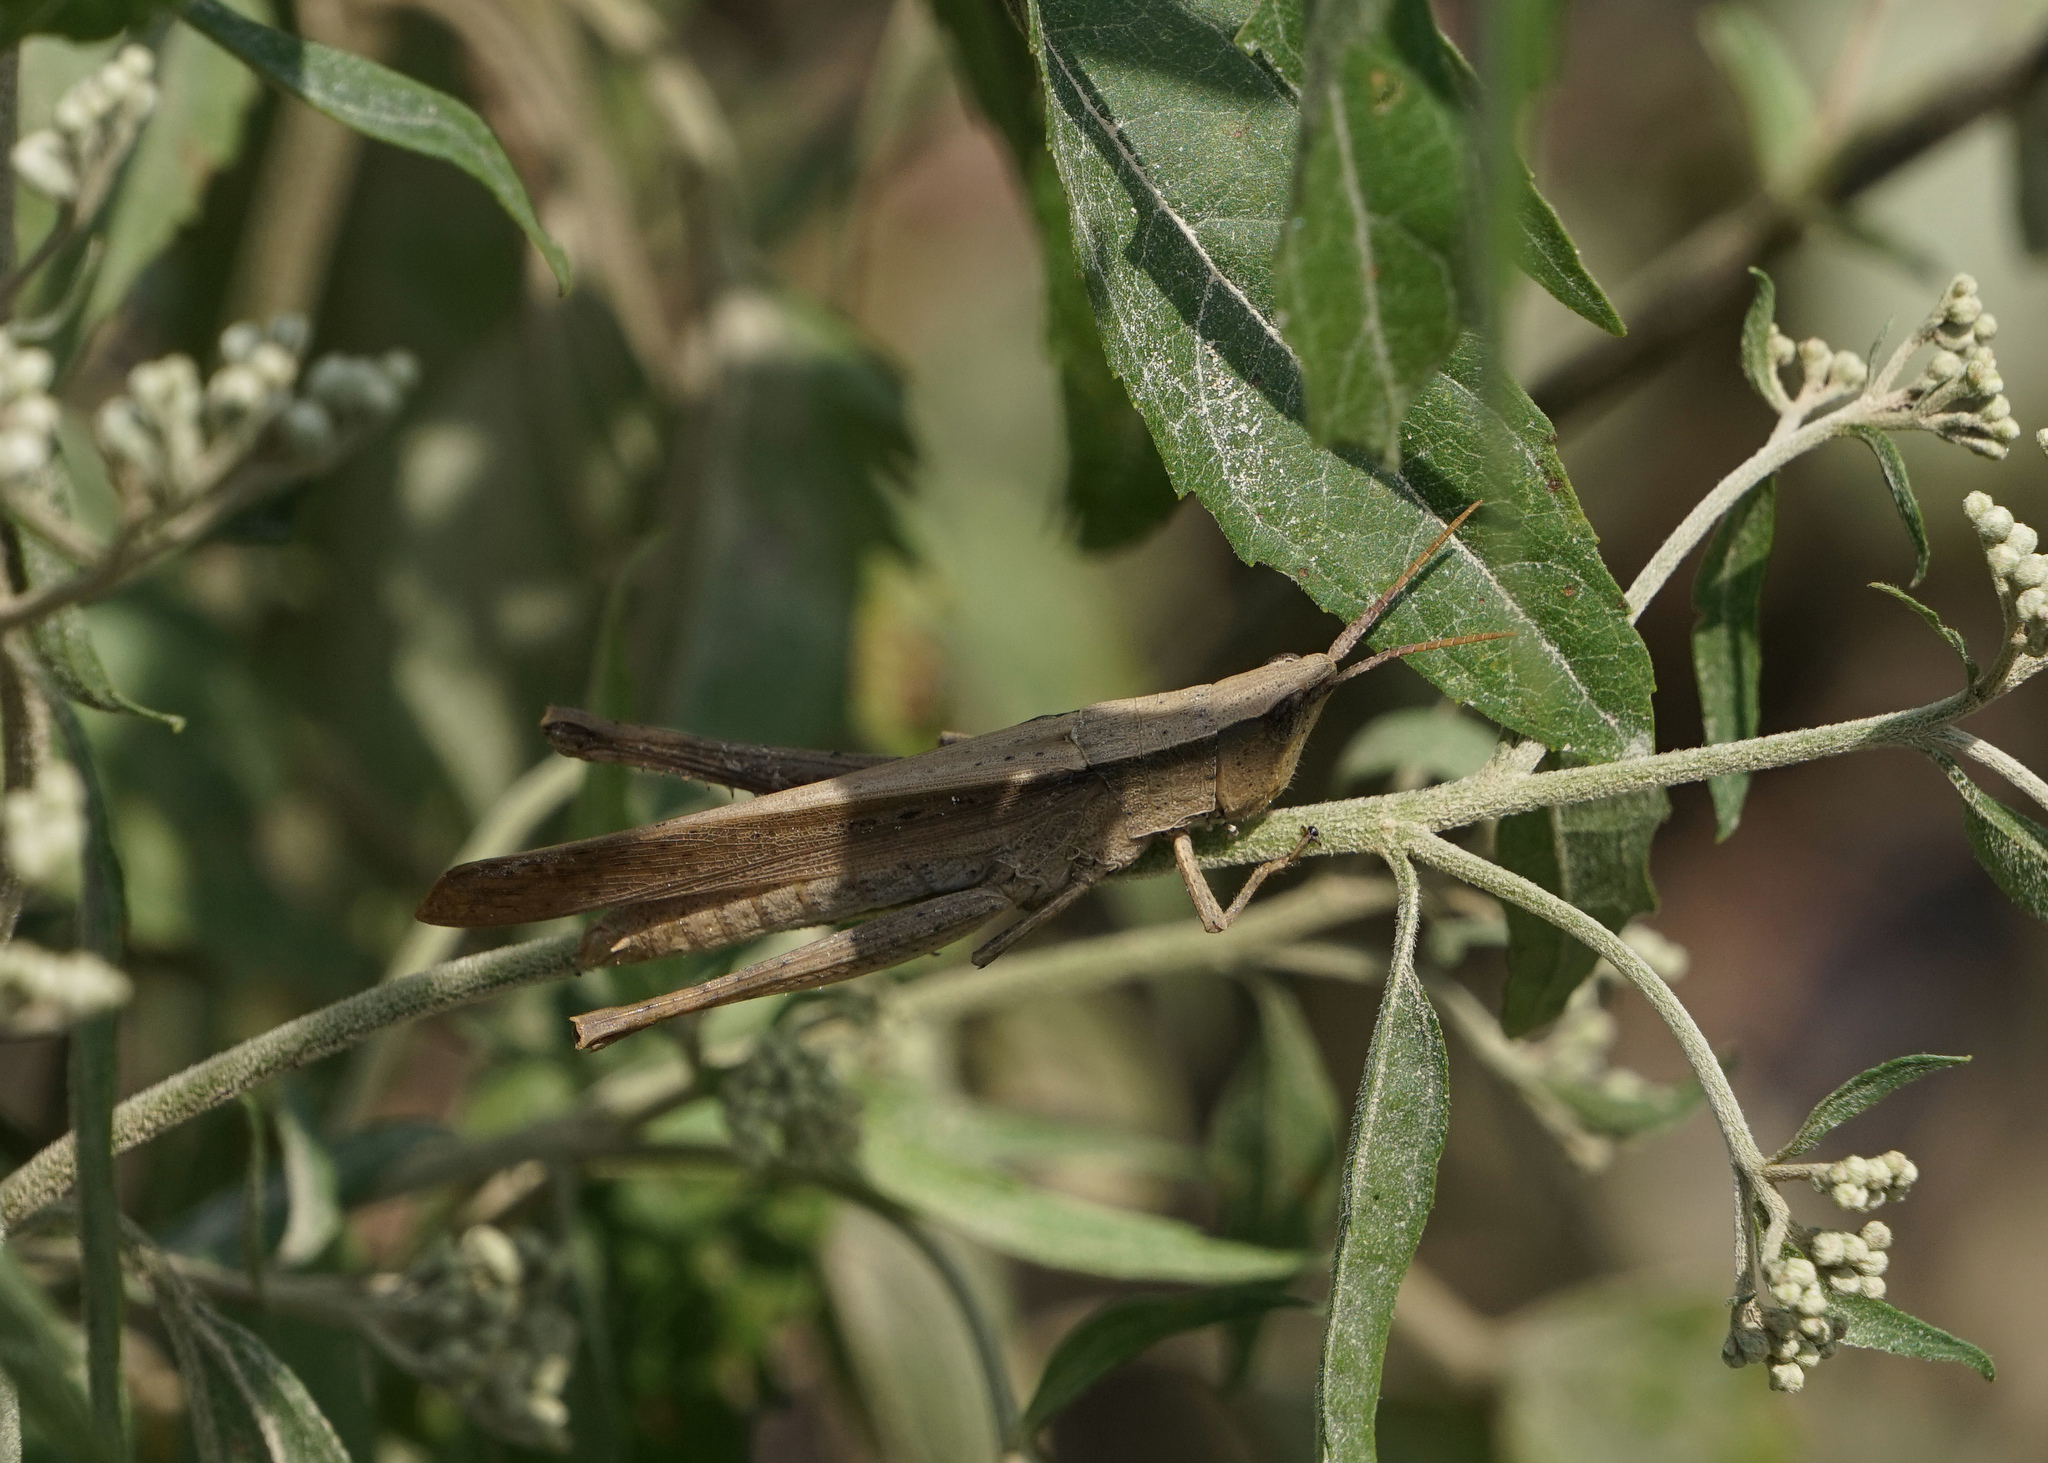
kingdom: Animalia
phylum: Arthropoda
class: Insecta
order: Orthoptera
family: Acrididae
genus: Metaleptea
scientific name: Metaleptea brevicornis
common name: Clipped-wing grasshopper
